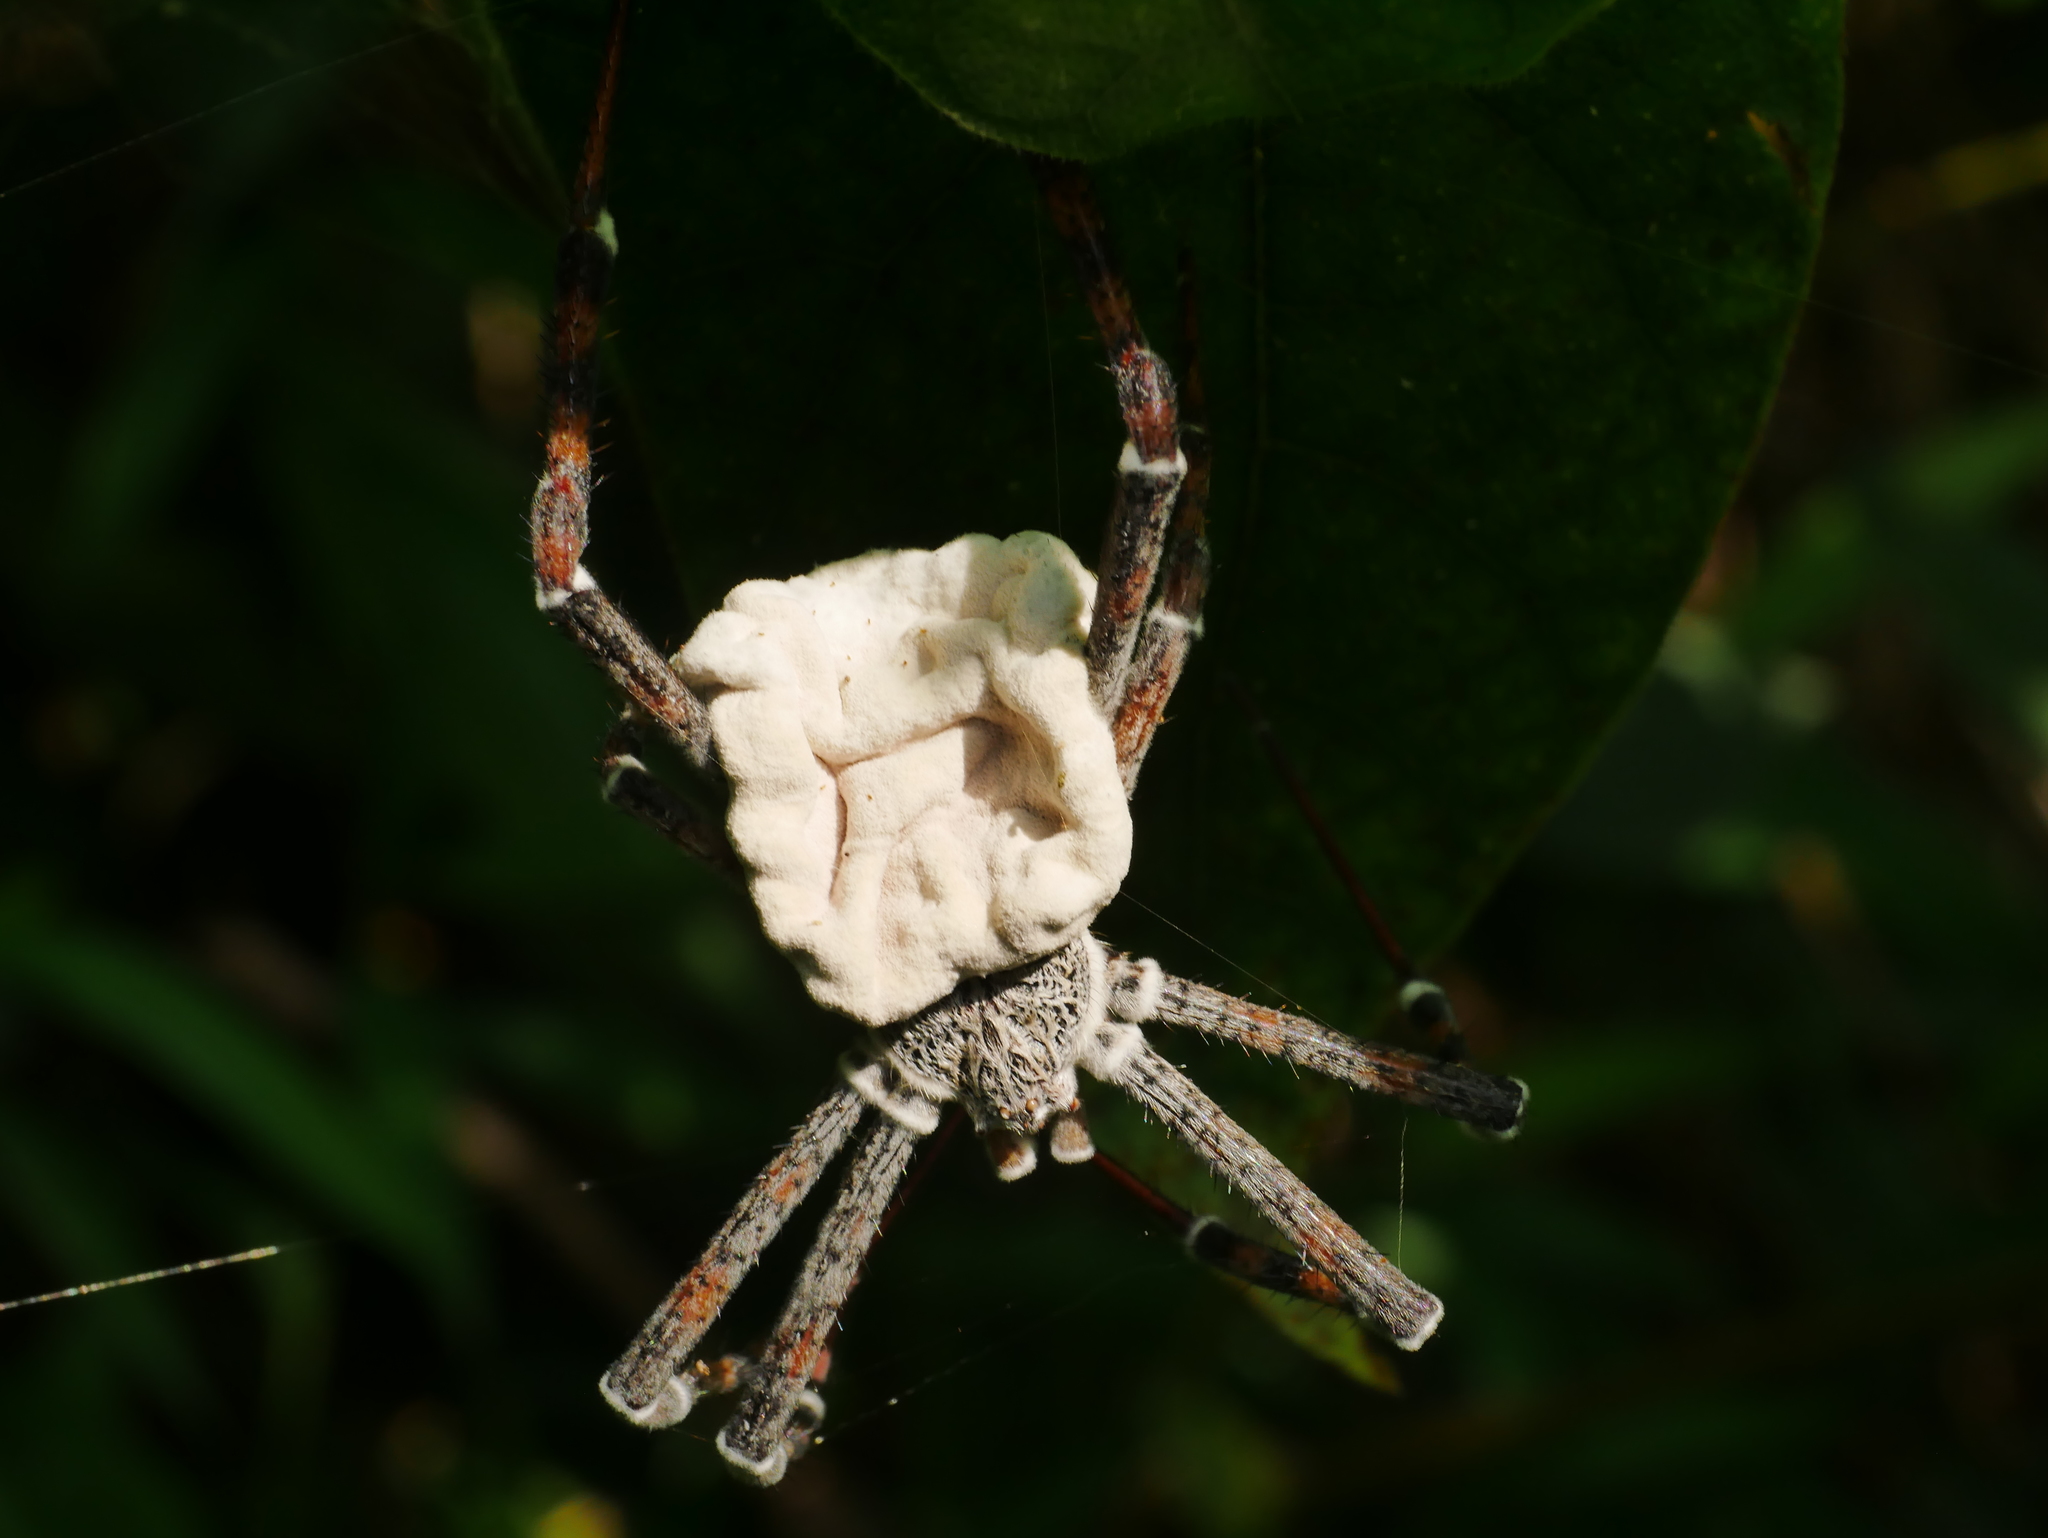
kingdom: Animalia
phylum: Arthropoda
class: Arachnida
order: Araneae
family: Araneidae
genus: Argiope
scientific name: Argiope ocula
